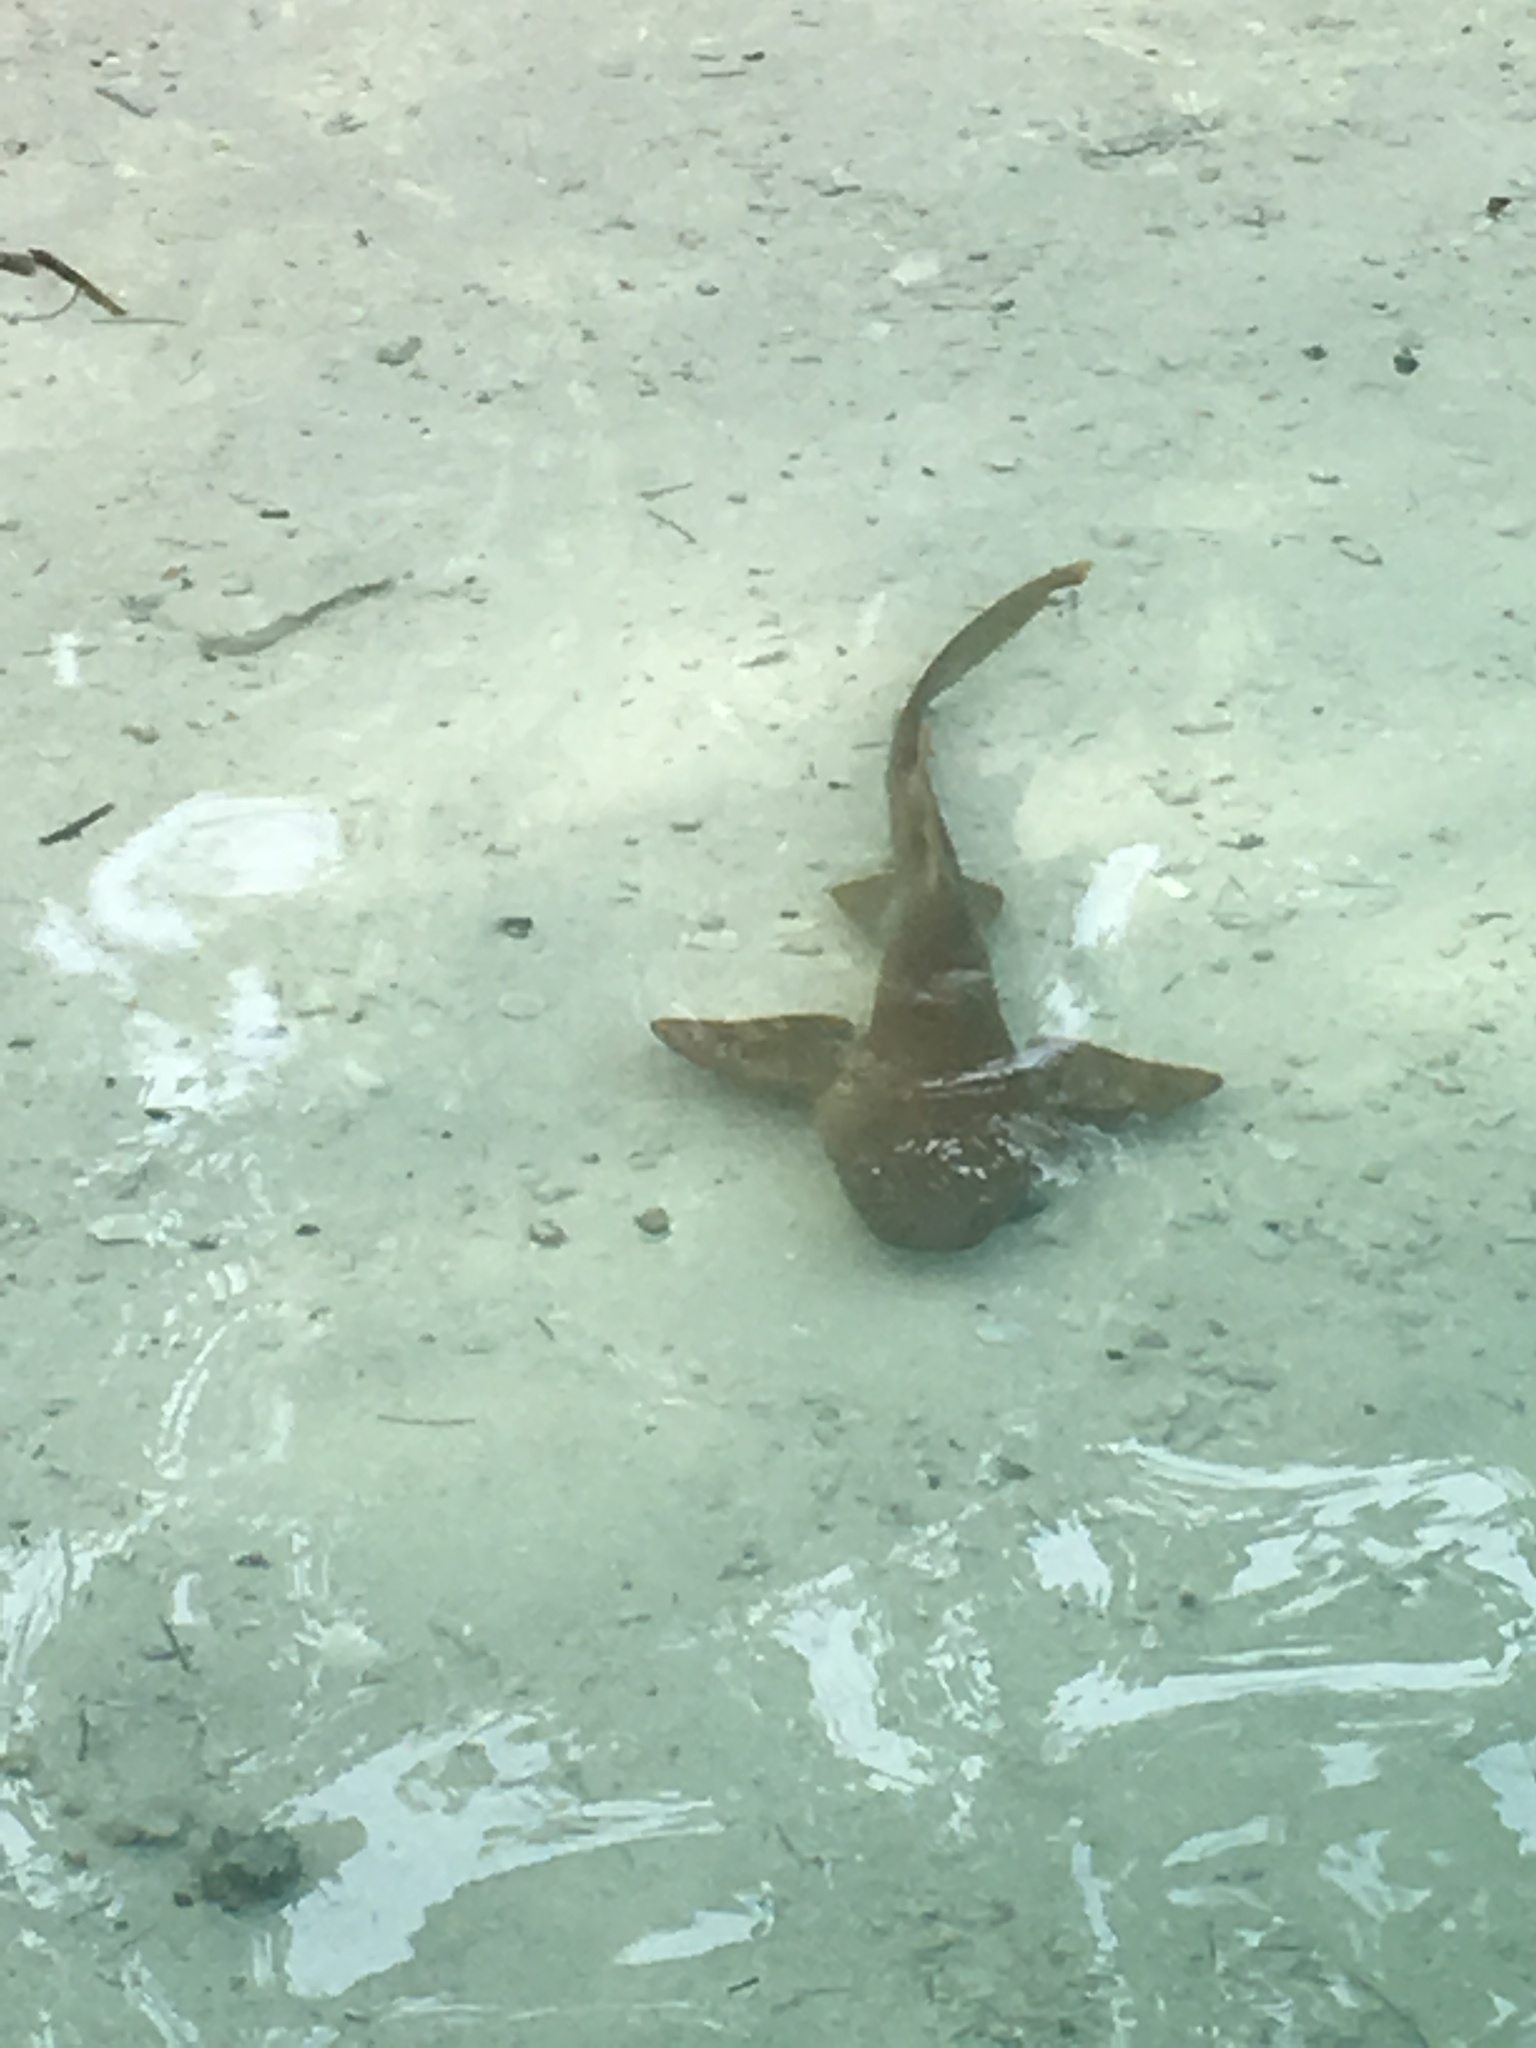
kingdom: Animalia
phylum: Chordata
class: Elasmobranchii
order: Orectolobiformes
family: Ginglymostomatidae
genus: Ginglymostoma
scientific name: Ginglymostoma cirratum
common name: Nurse shark
